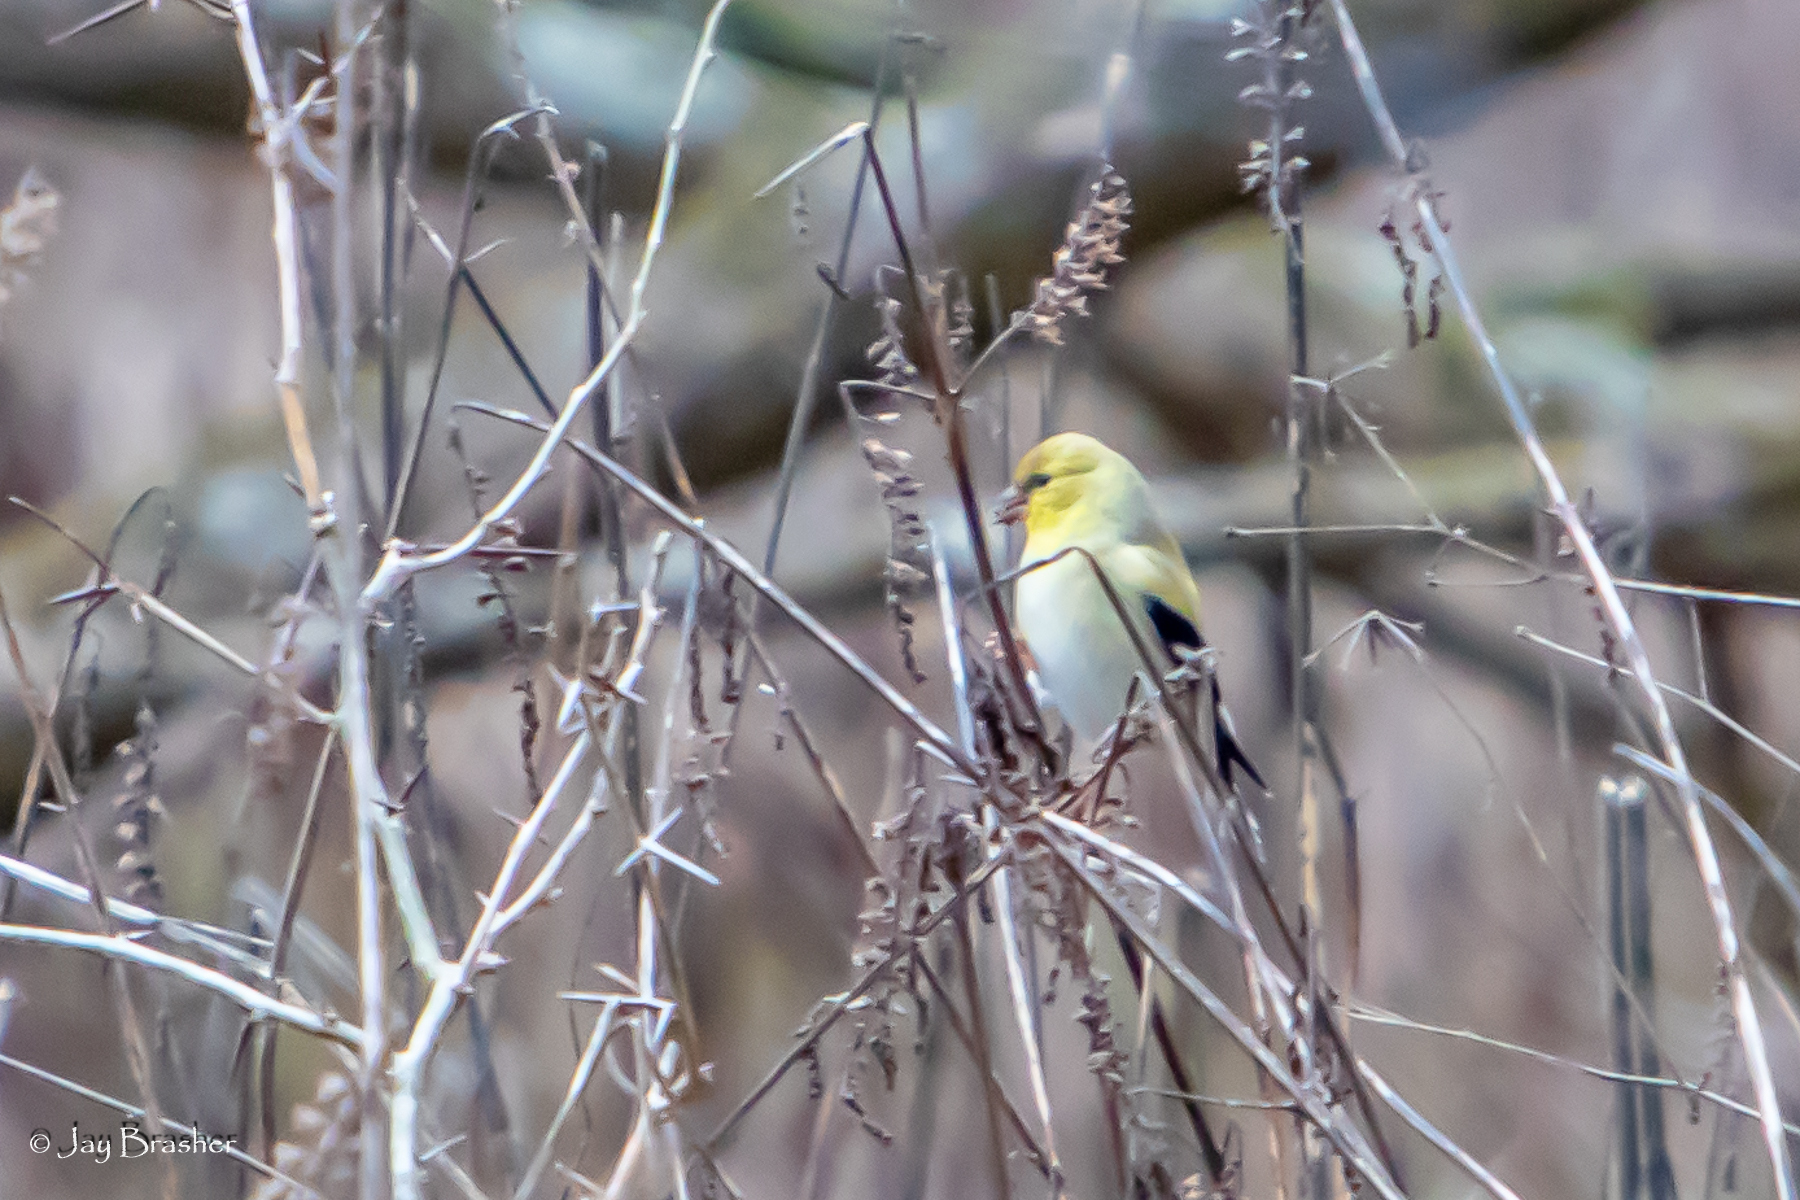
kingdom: Animalia
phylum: Chordata
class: Aves
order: Passeriformes
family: Fringillidae
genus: Spinus
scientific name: Spinus tristis
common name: American goldfinch
